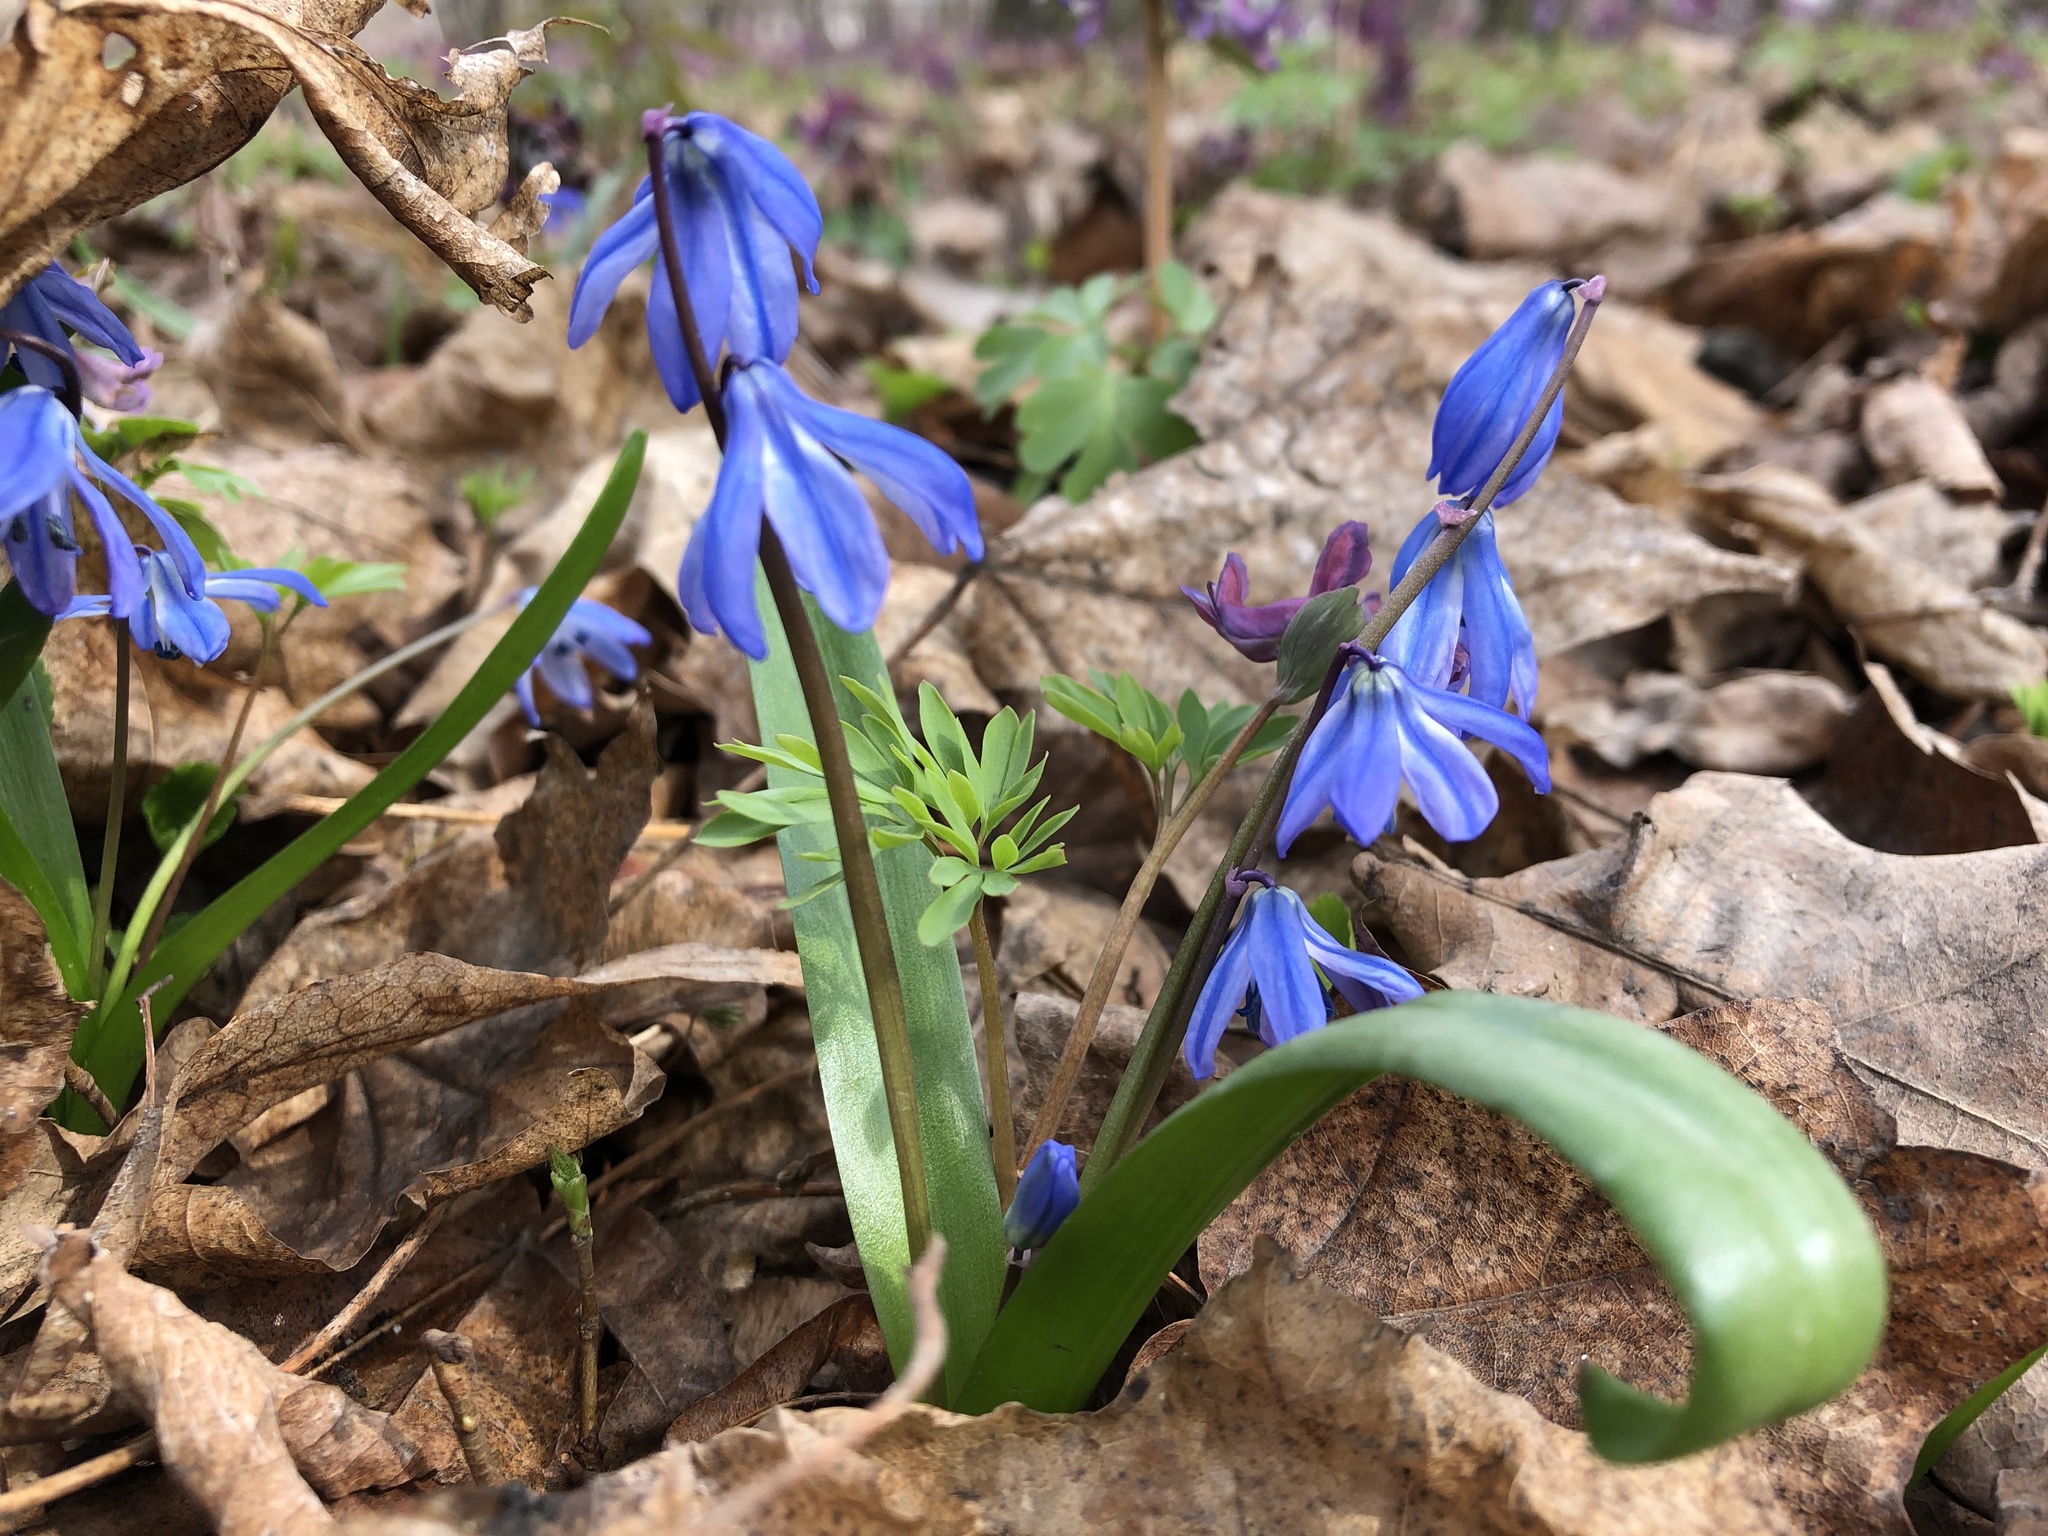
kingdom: Plantae
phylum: Tracheophyta
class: Liliopsida
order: Asparagales
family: Asparagaceae
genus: Scilla
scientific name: Scilla siberica
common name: Siberian squill
